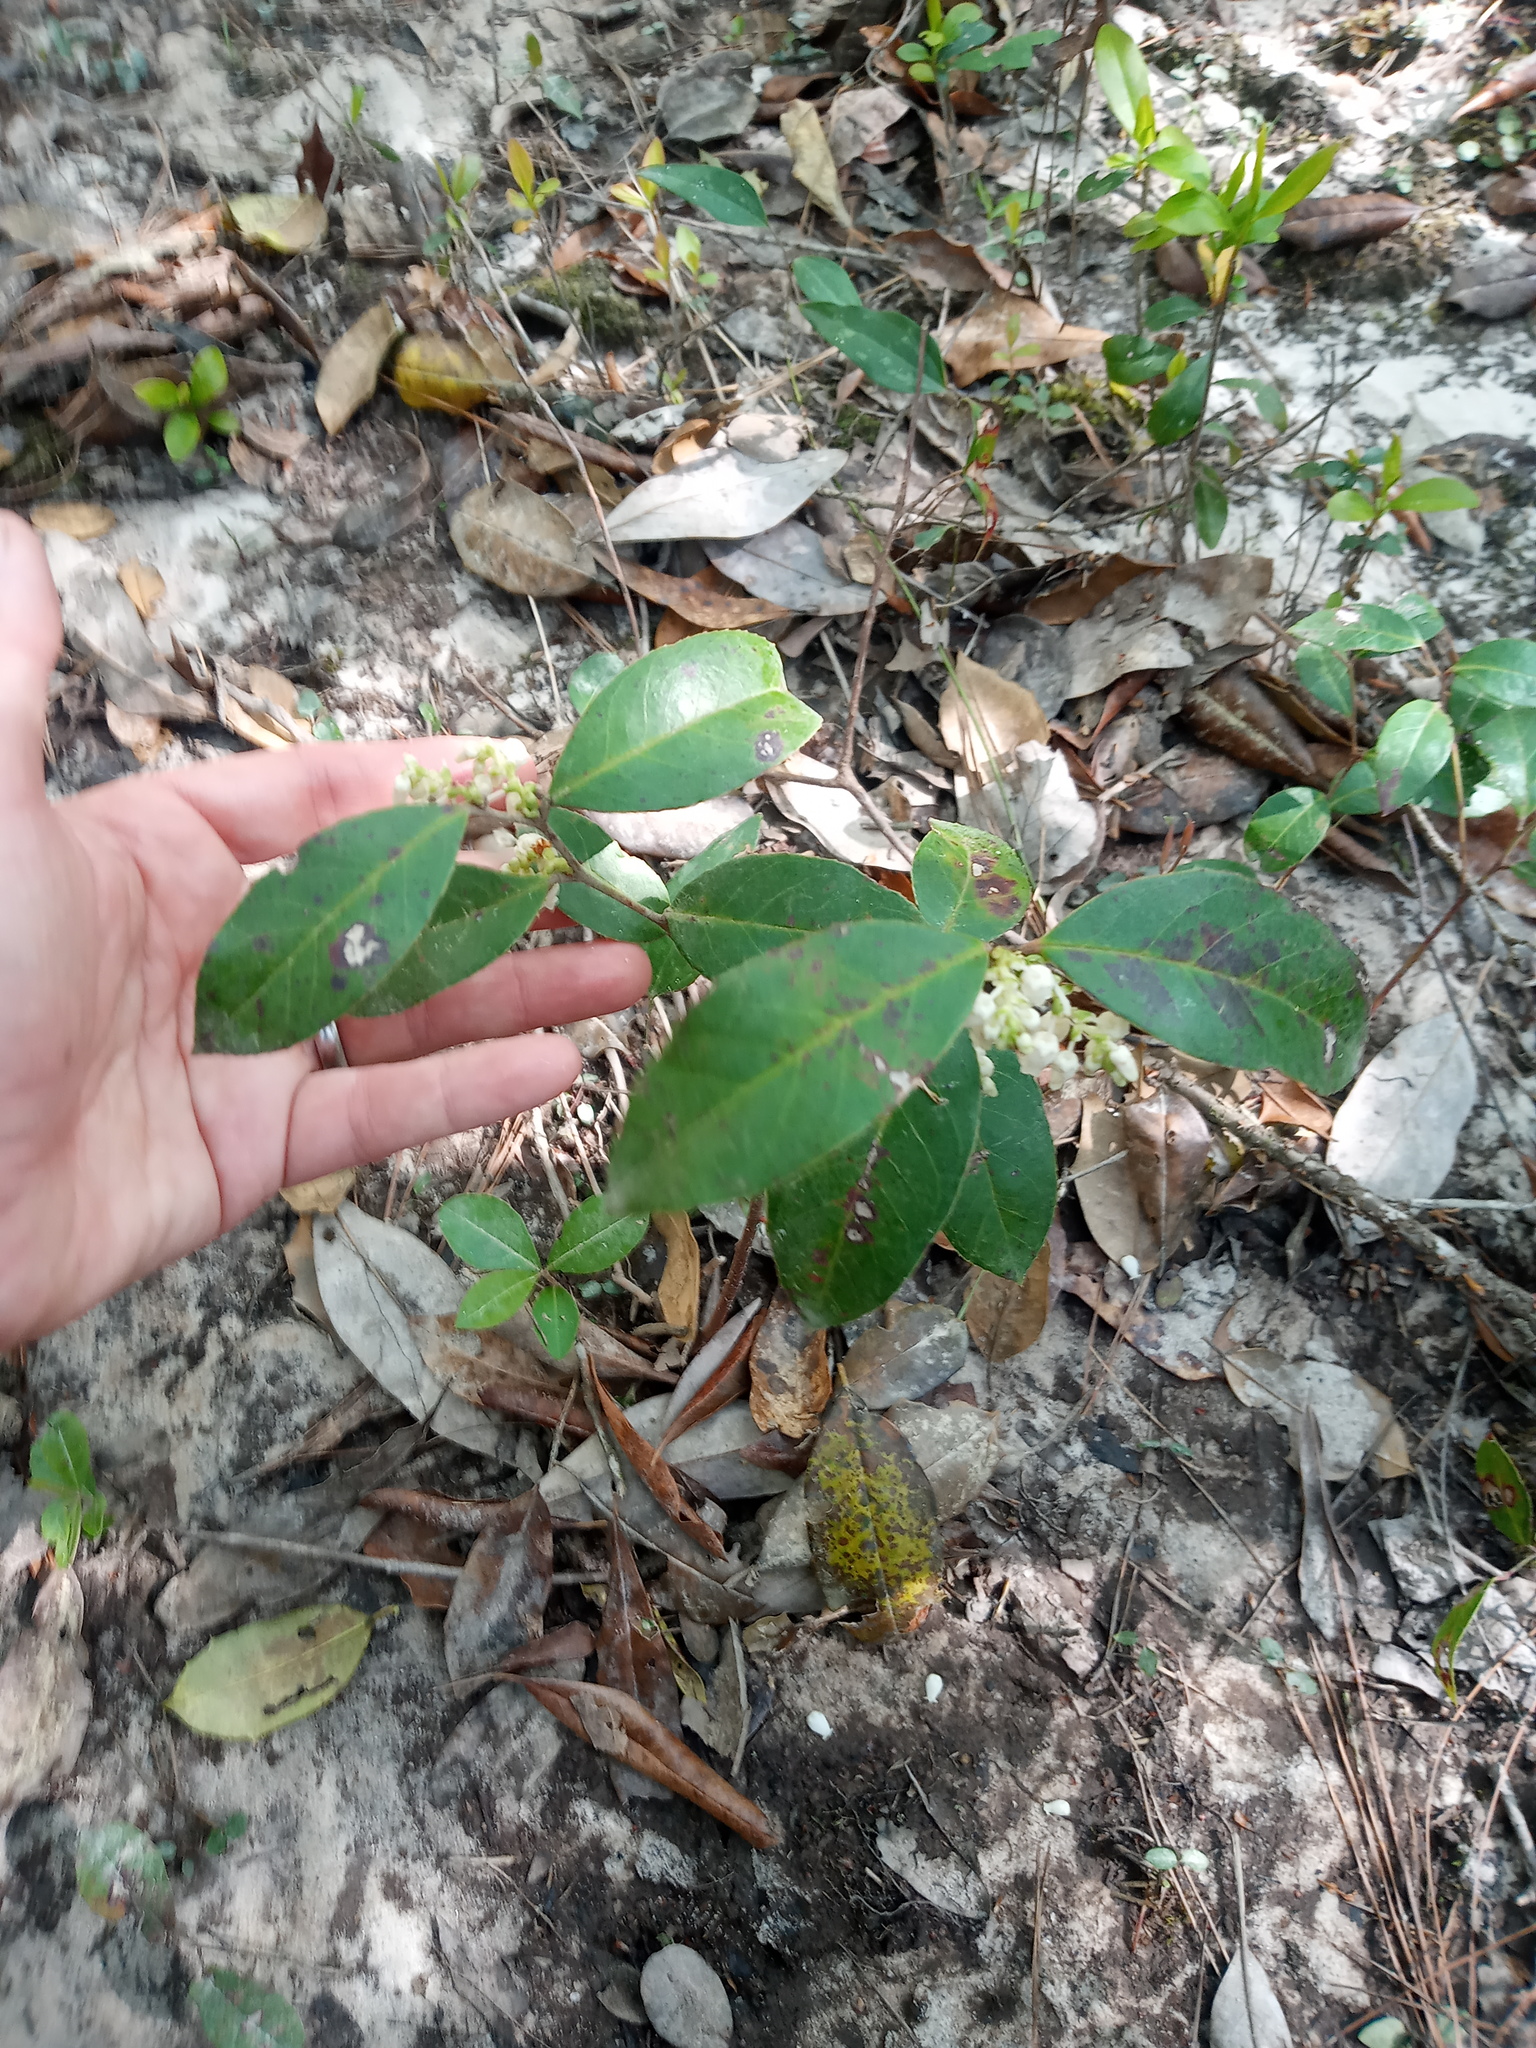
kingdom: Plantae
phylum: Tracheophyta
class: Magnoliopsida
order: Ericales
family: Ericaceae
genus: Leucothoe
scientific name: Leucothoe axillaris
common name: Leucothoe
